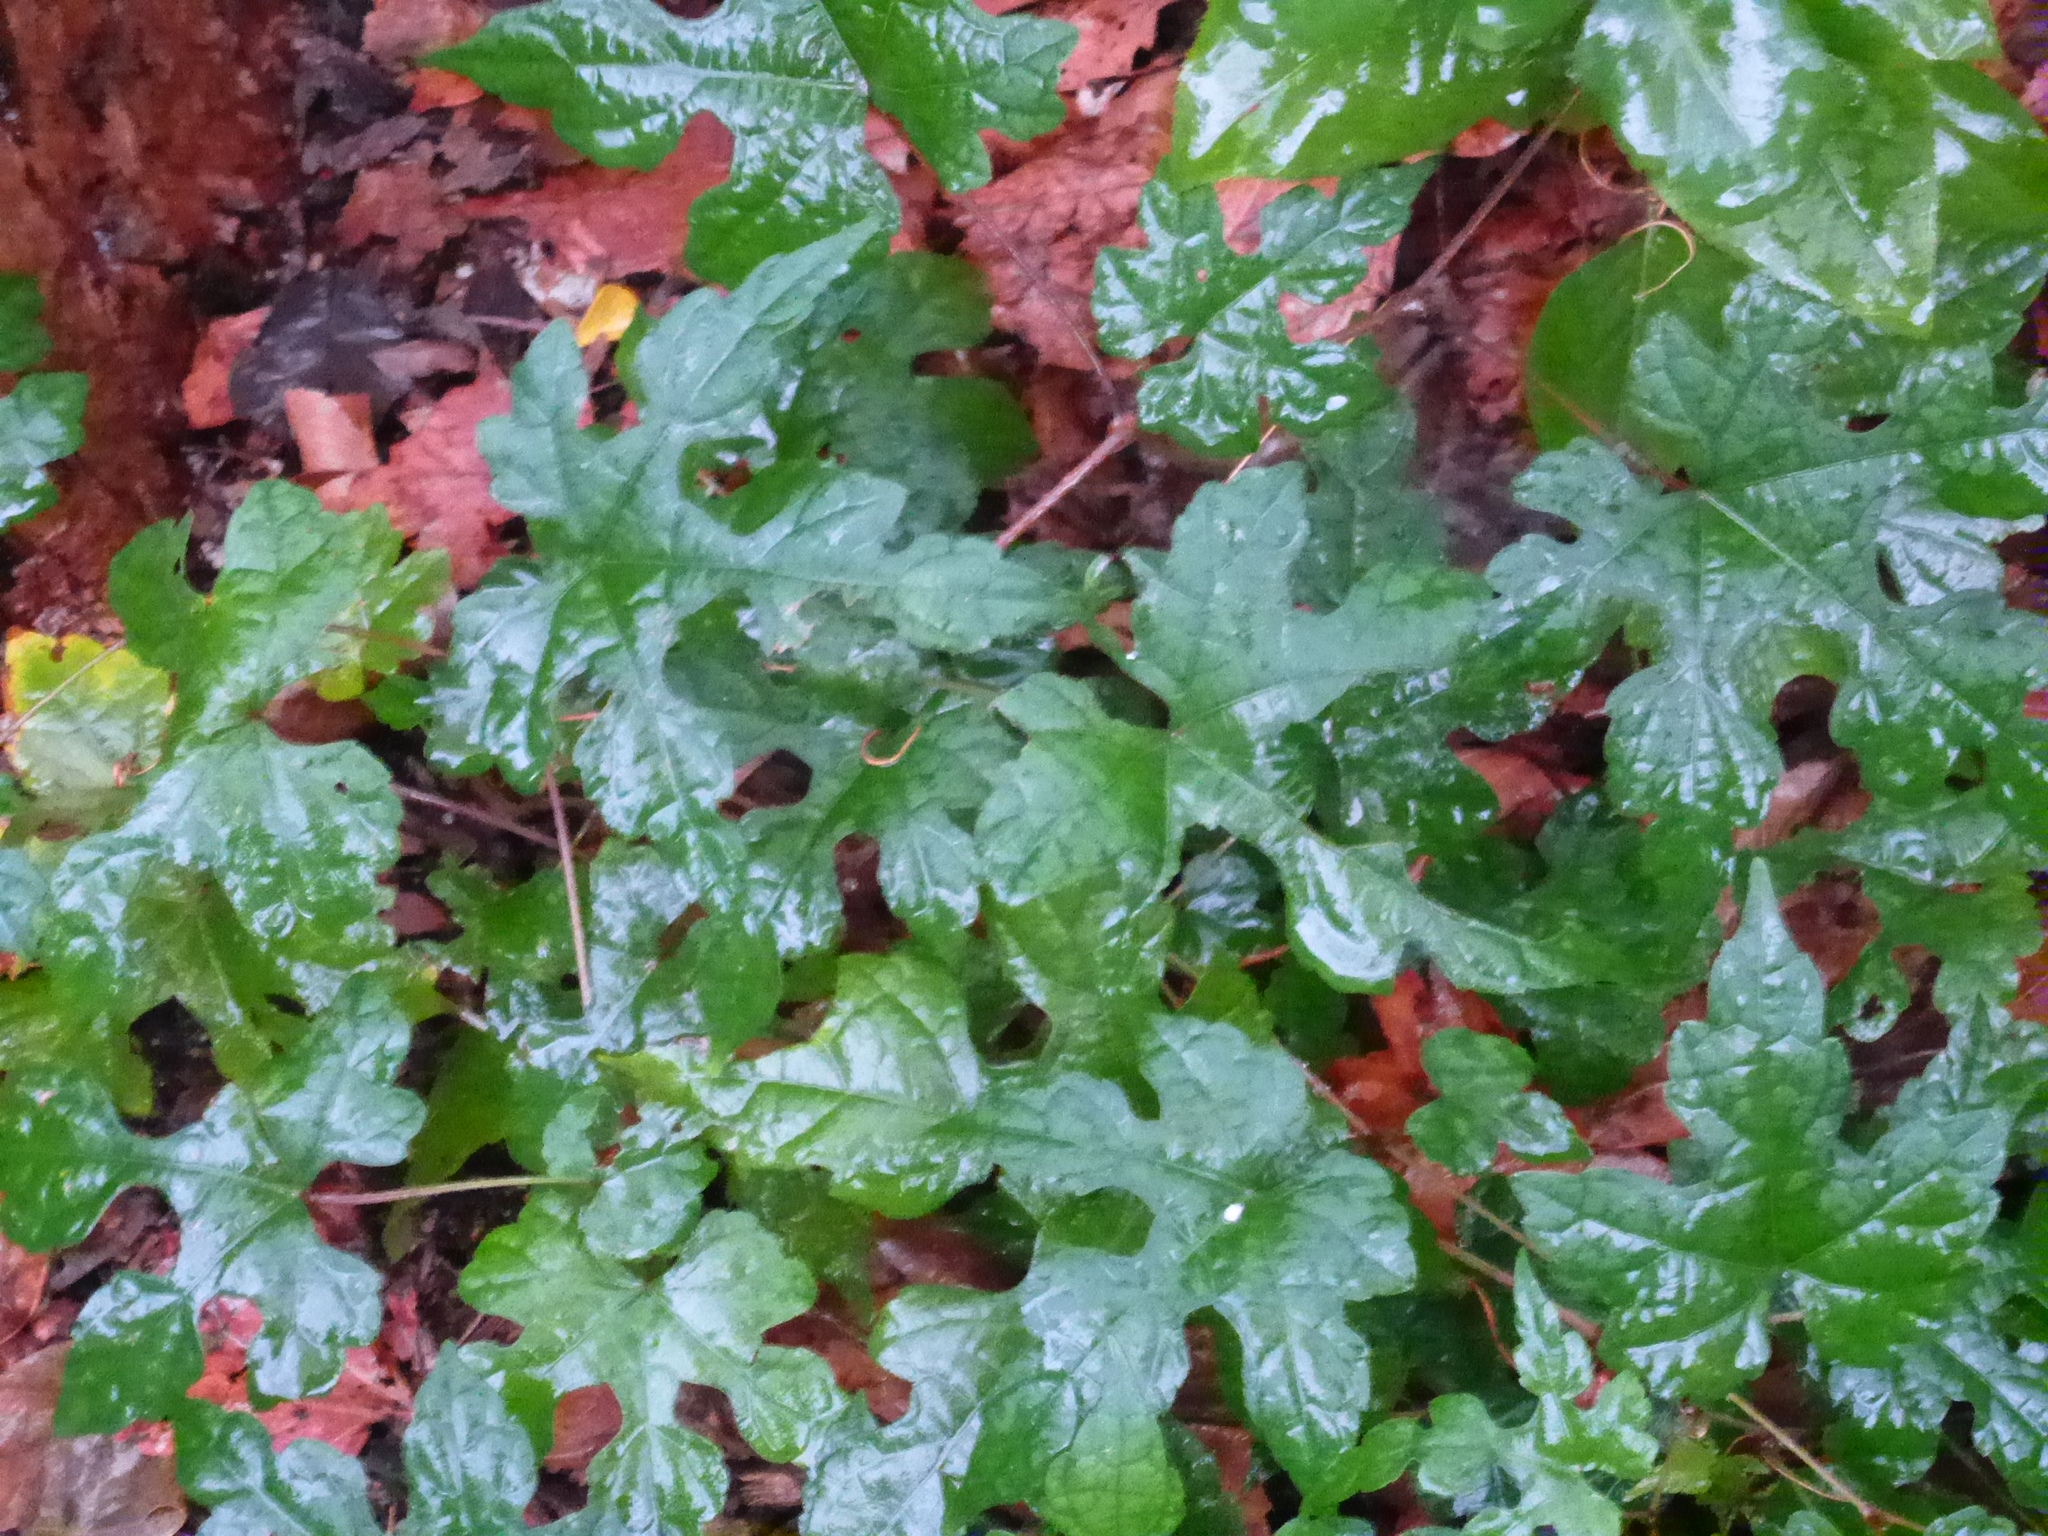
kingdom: Plantae
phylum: Tracheophyta
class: Magnoliopsida
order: Vitales
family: Vitaceae
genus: Ampelopsis
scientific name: Ampelopsis glandulosa
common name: Amur peppervine
